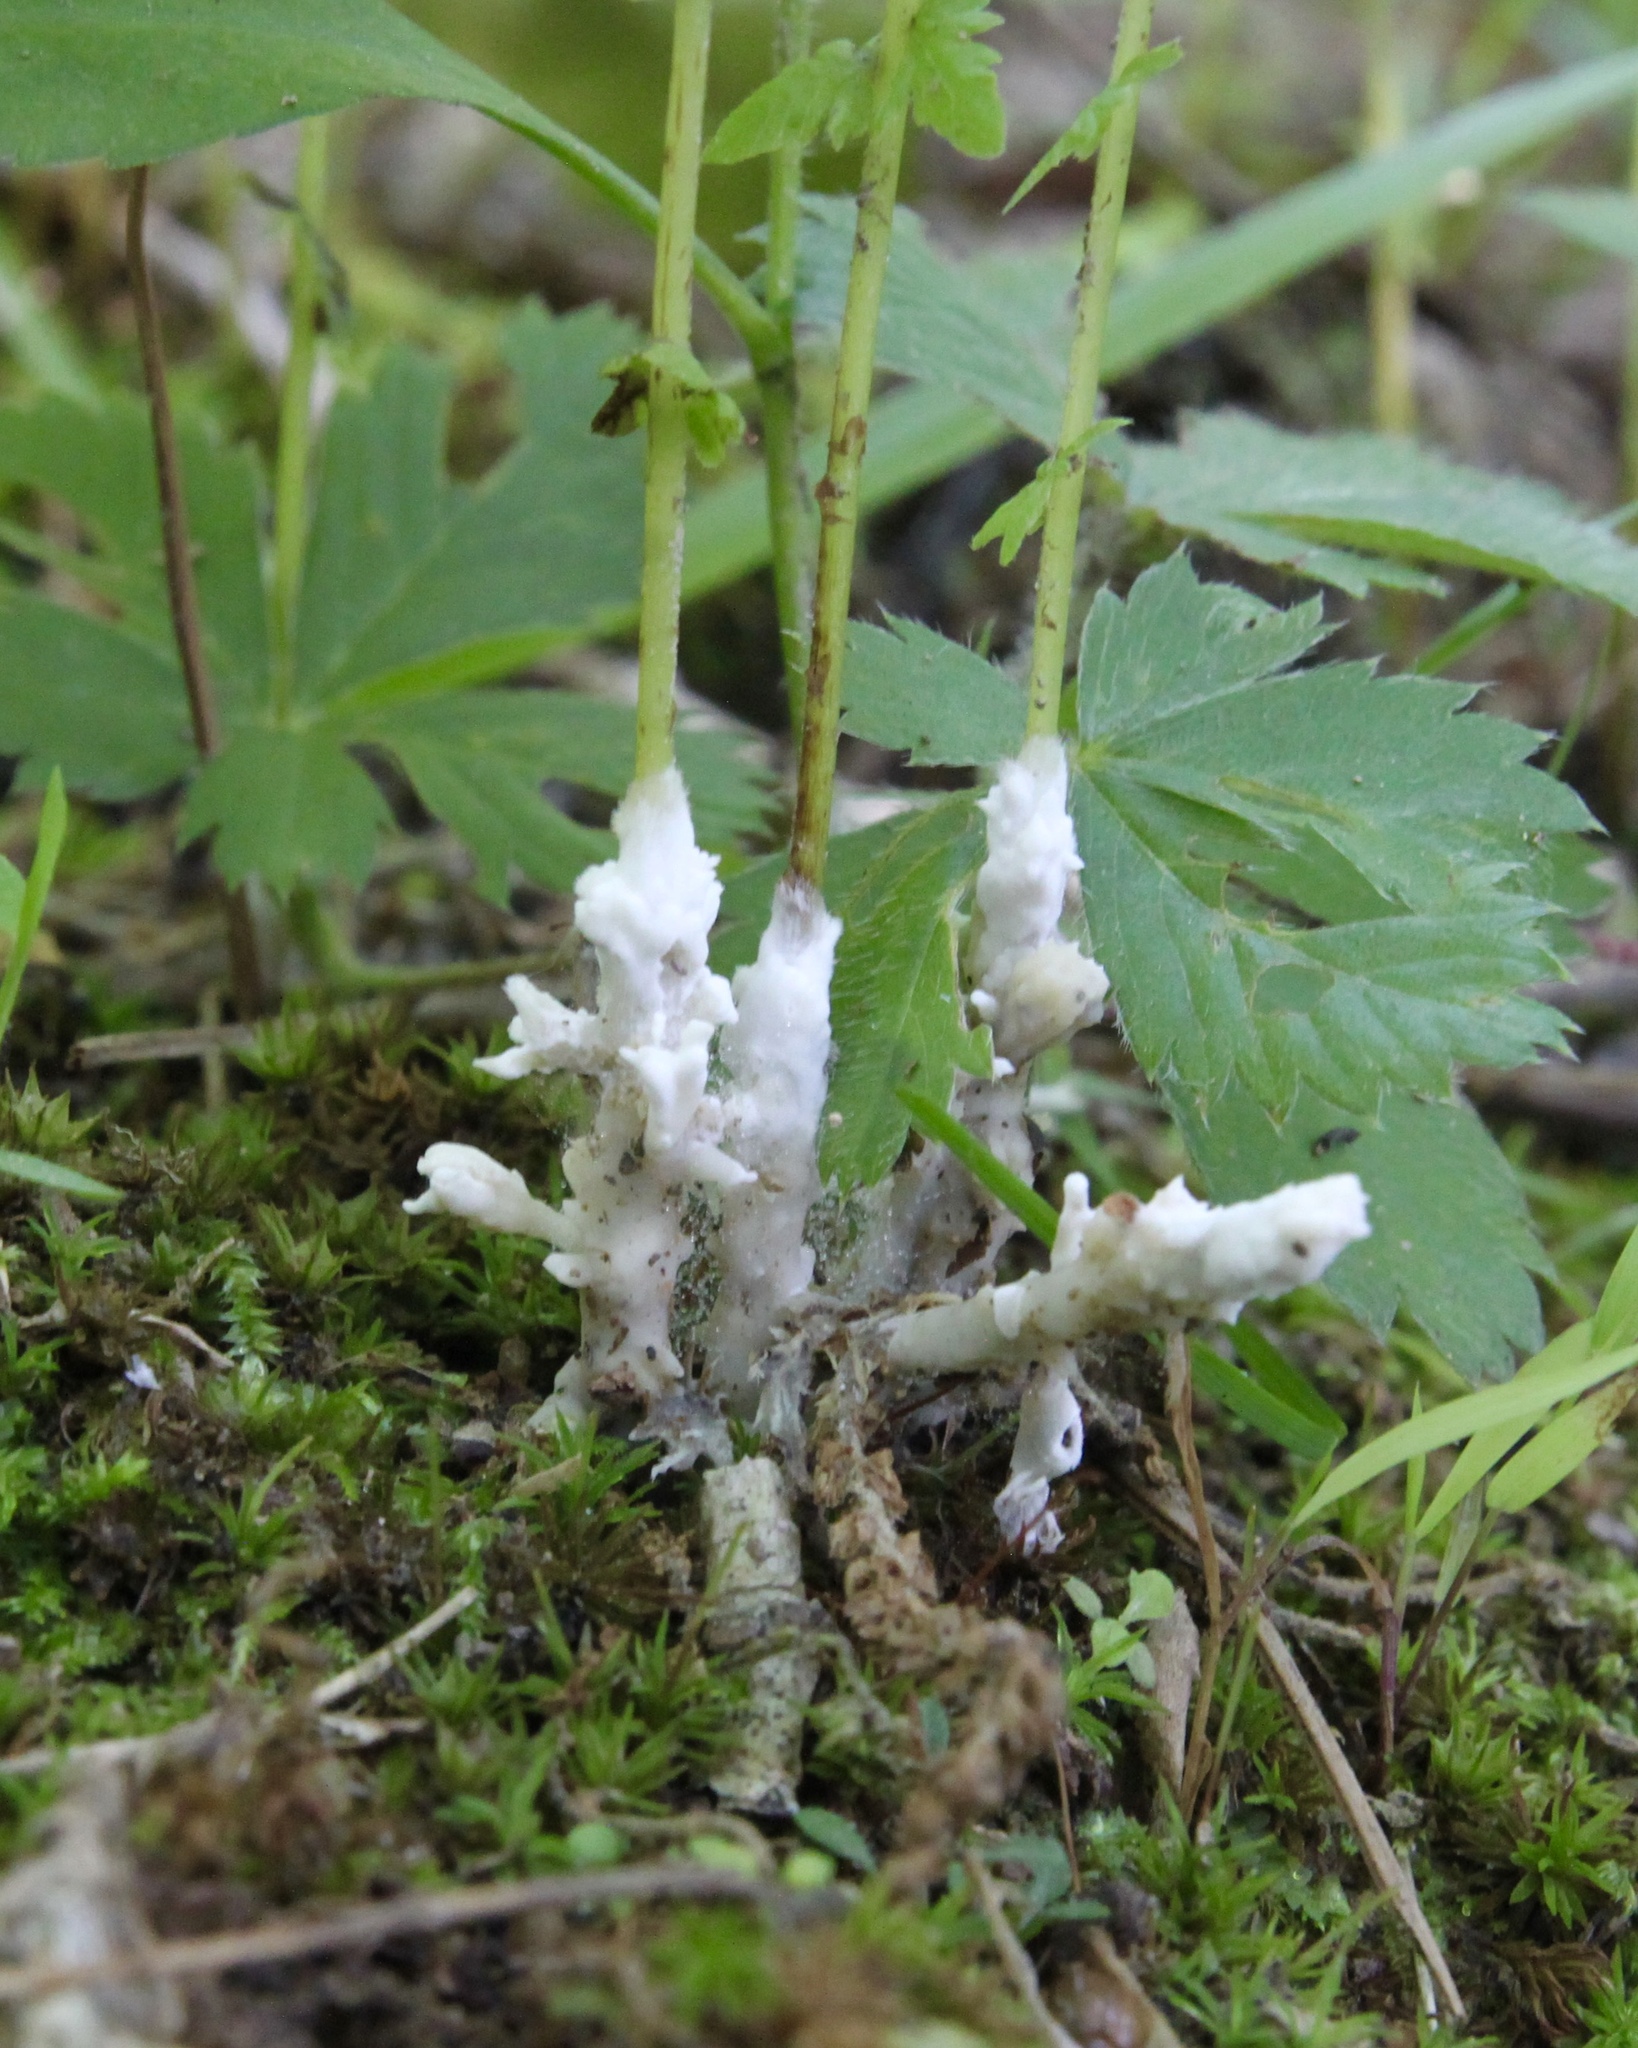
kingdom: Fungi
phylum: Basidiomycota
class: Agaricomycetes
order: Sebacinales
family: Sebacinaceae
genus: Sebacina
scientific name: Sebacina incrustans
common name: Enveloping crust
